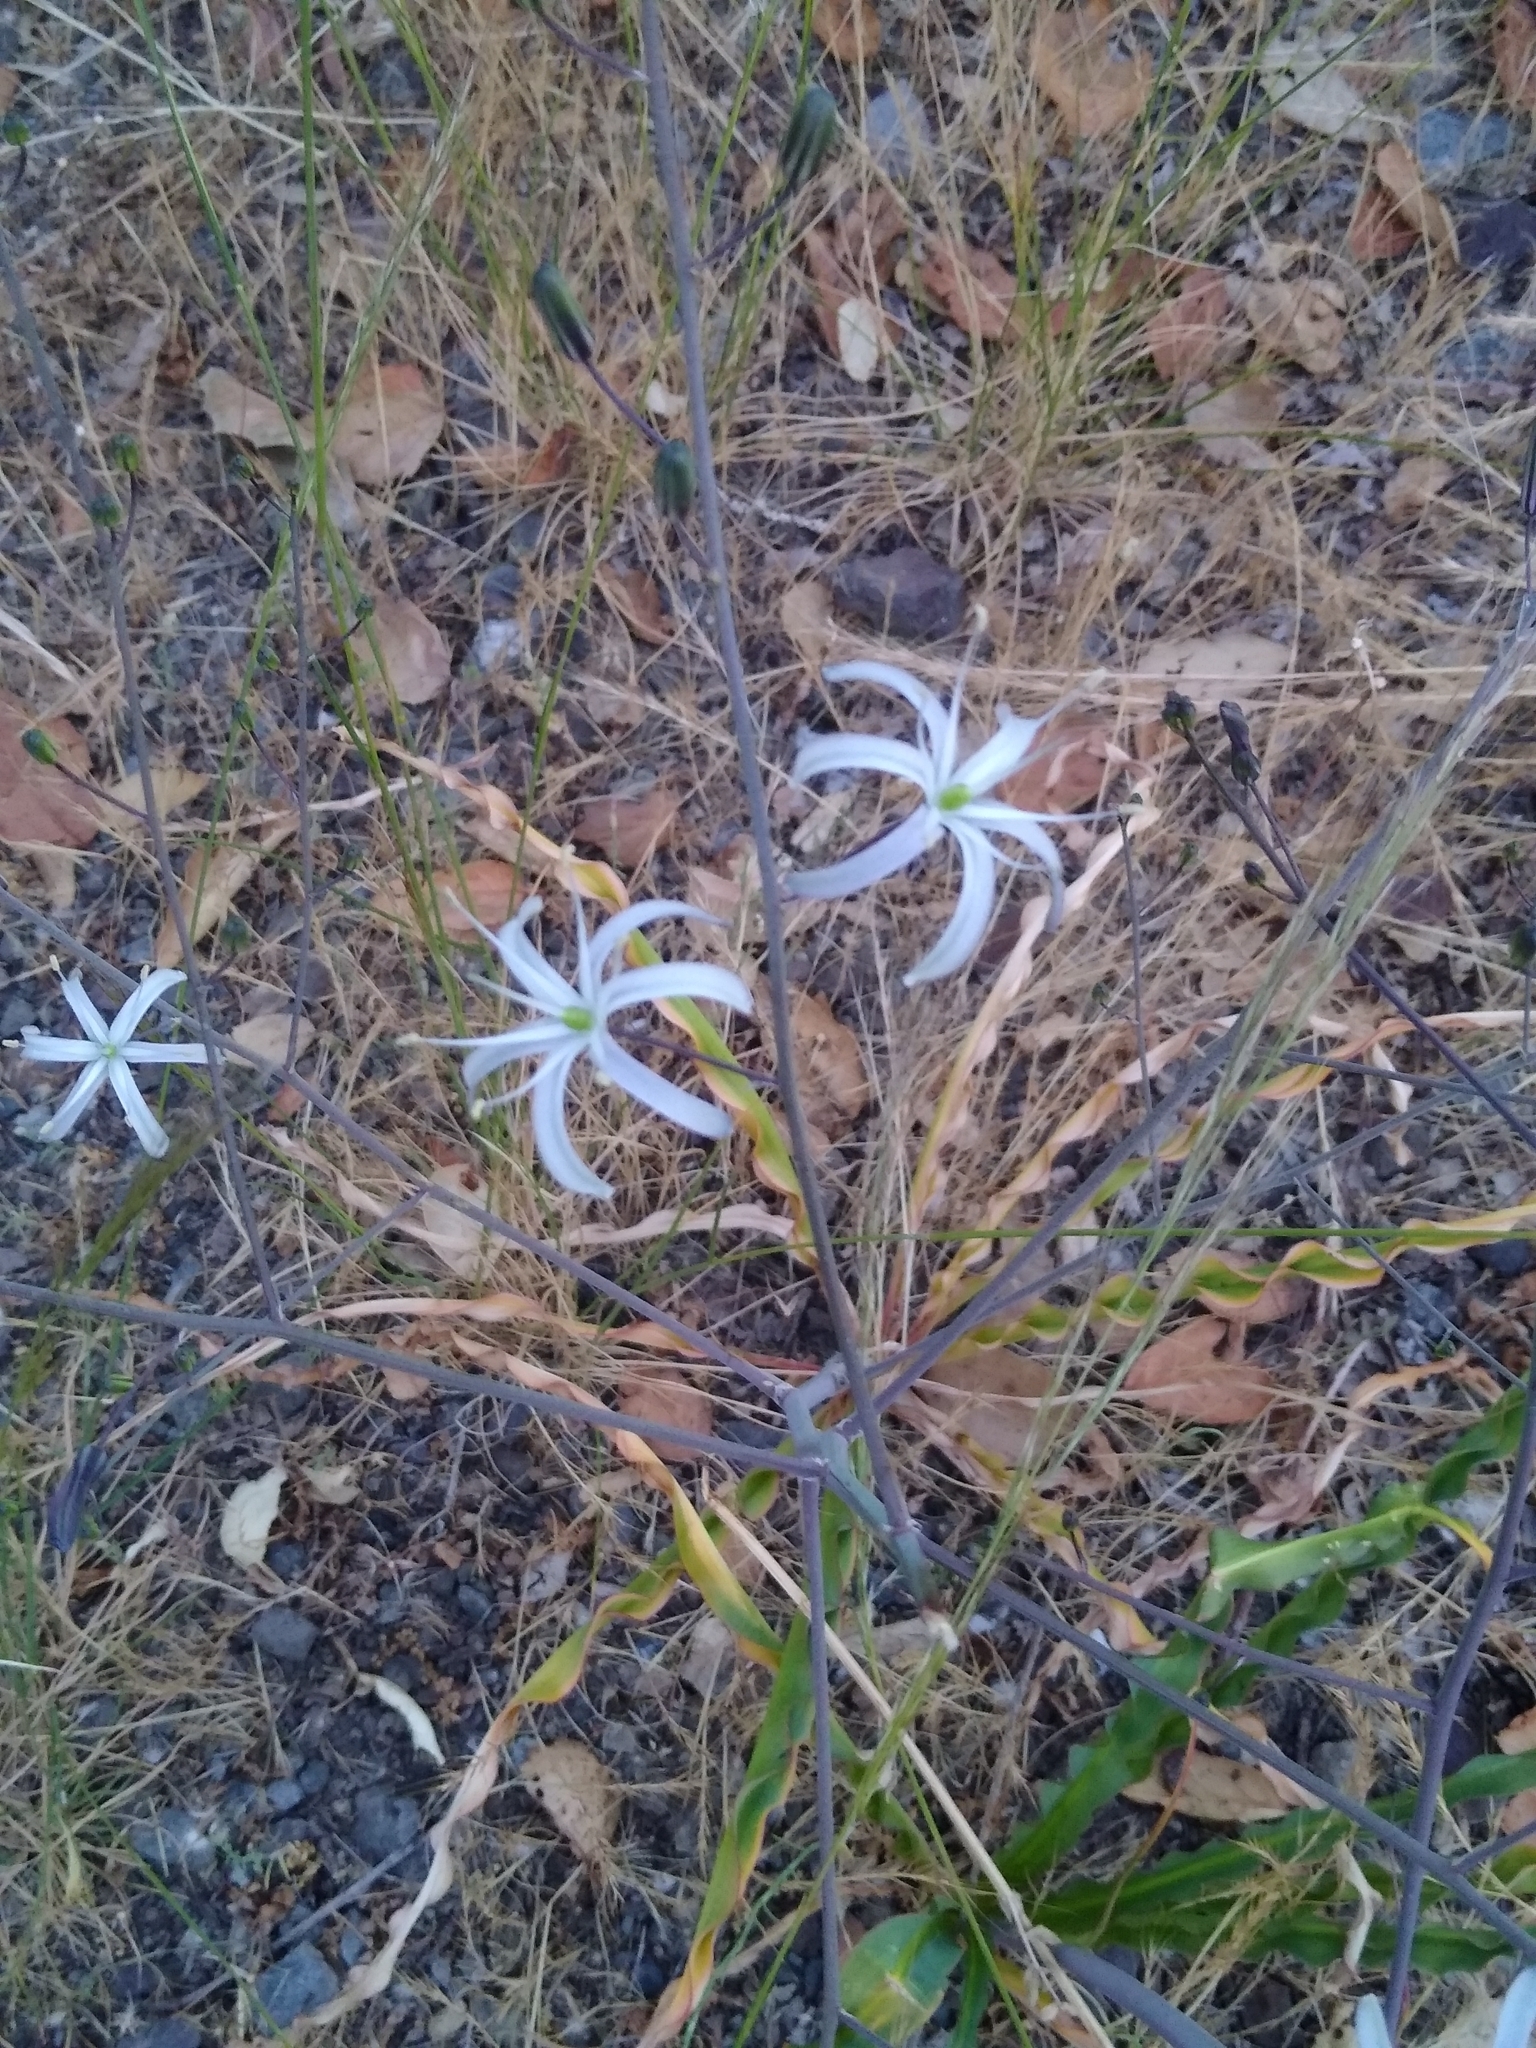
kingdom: Plantae
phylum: Tracheophyta
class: Liliopsida
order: Asparagales
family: Asparagaceae
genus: Chlorogalum
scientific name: Chlorogalum pomeridianum
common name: Amole
